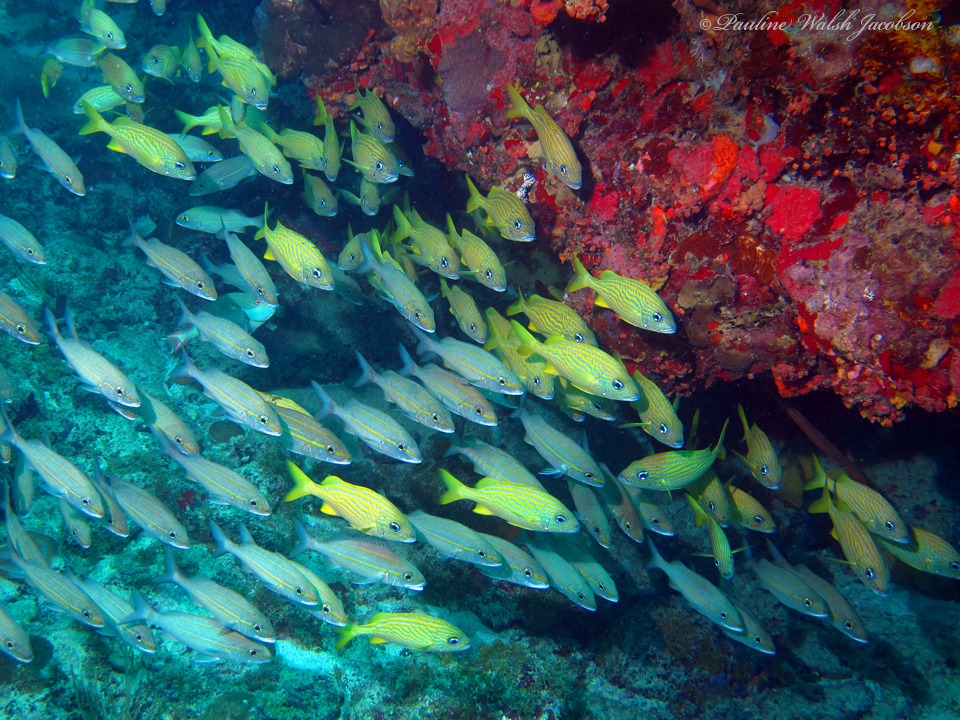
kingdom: Animalia
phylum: Chordata
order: Perciformes
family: Haemulidae
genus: Haemulon
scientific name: Haemulon aurolineatum
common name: Tomtate
